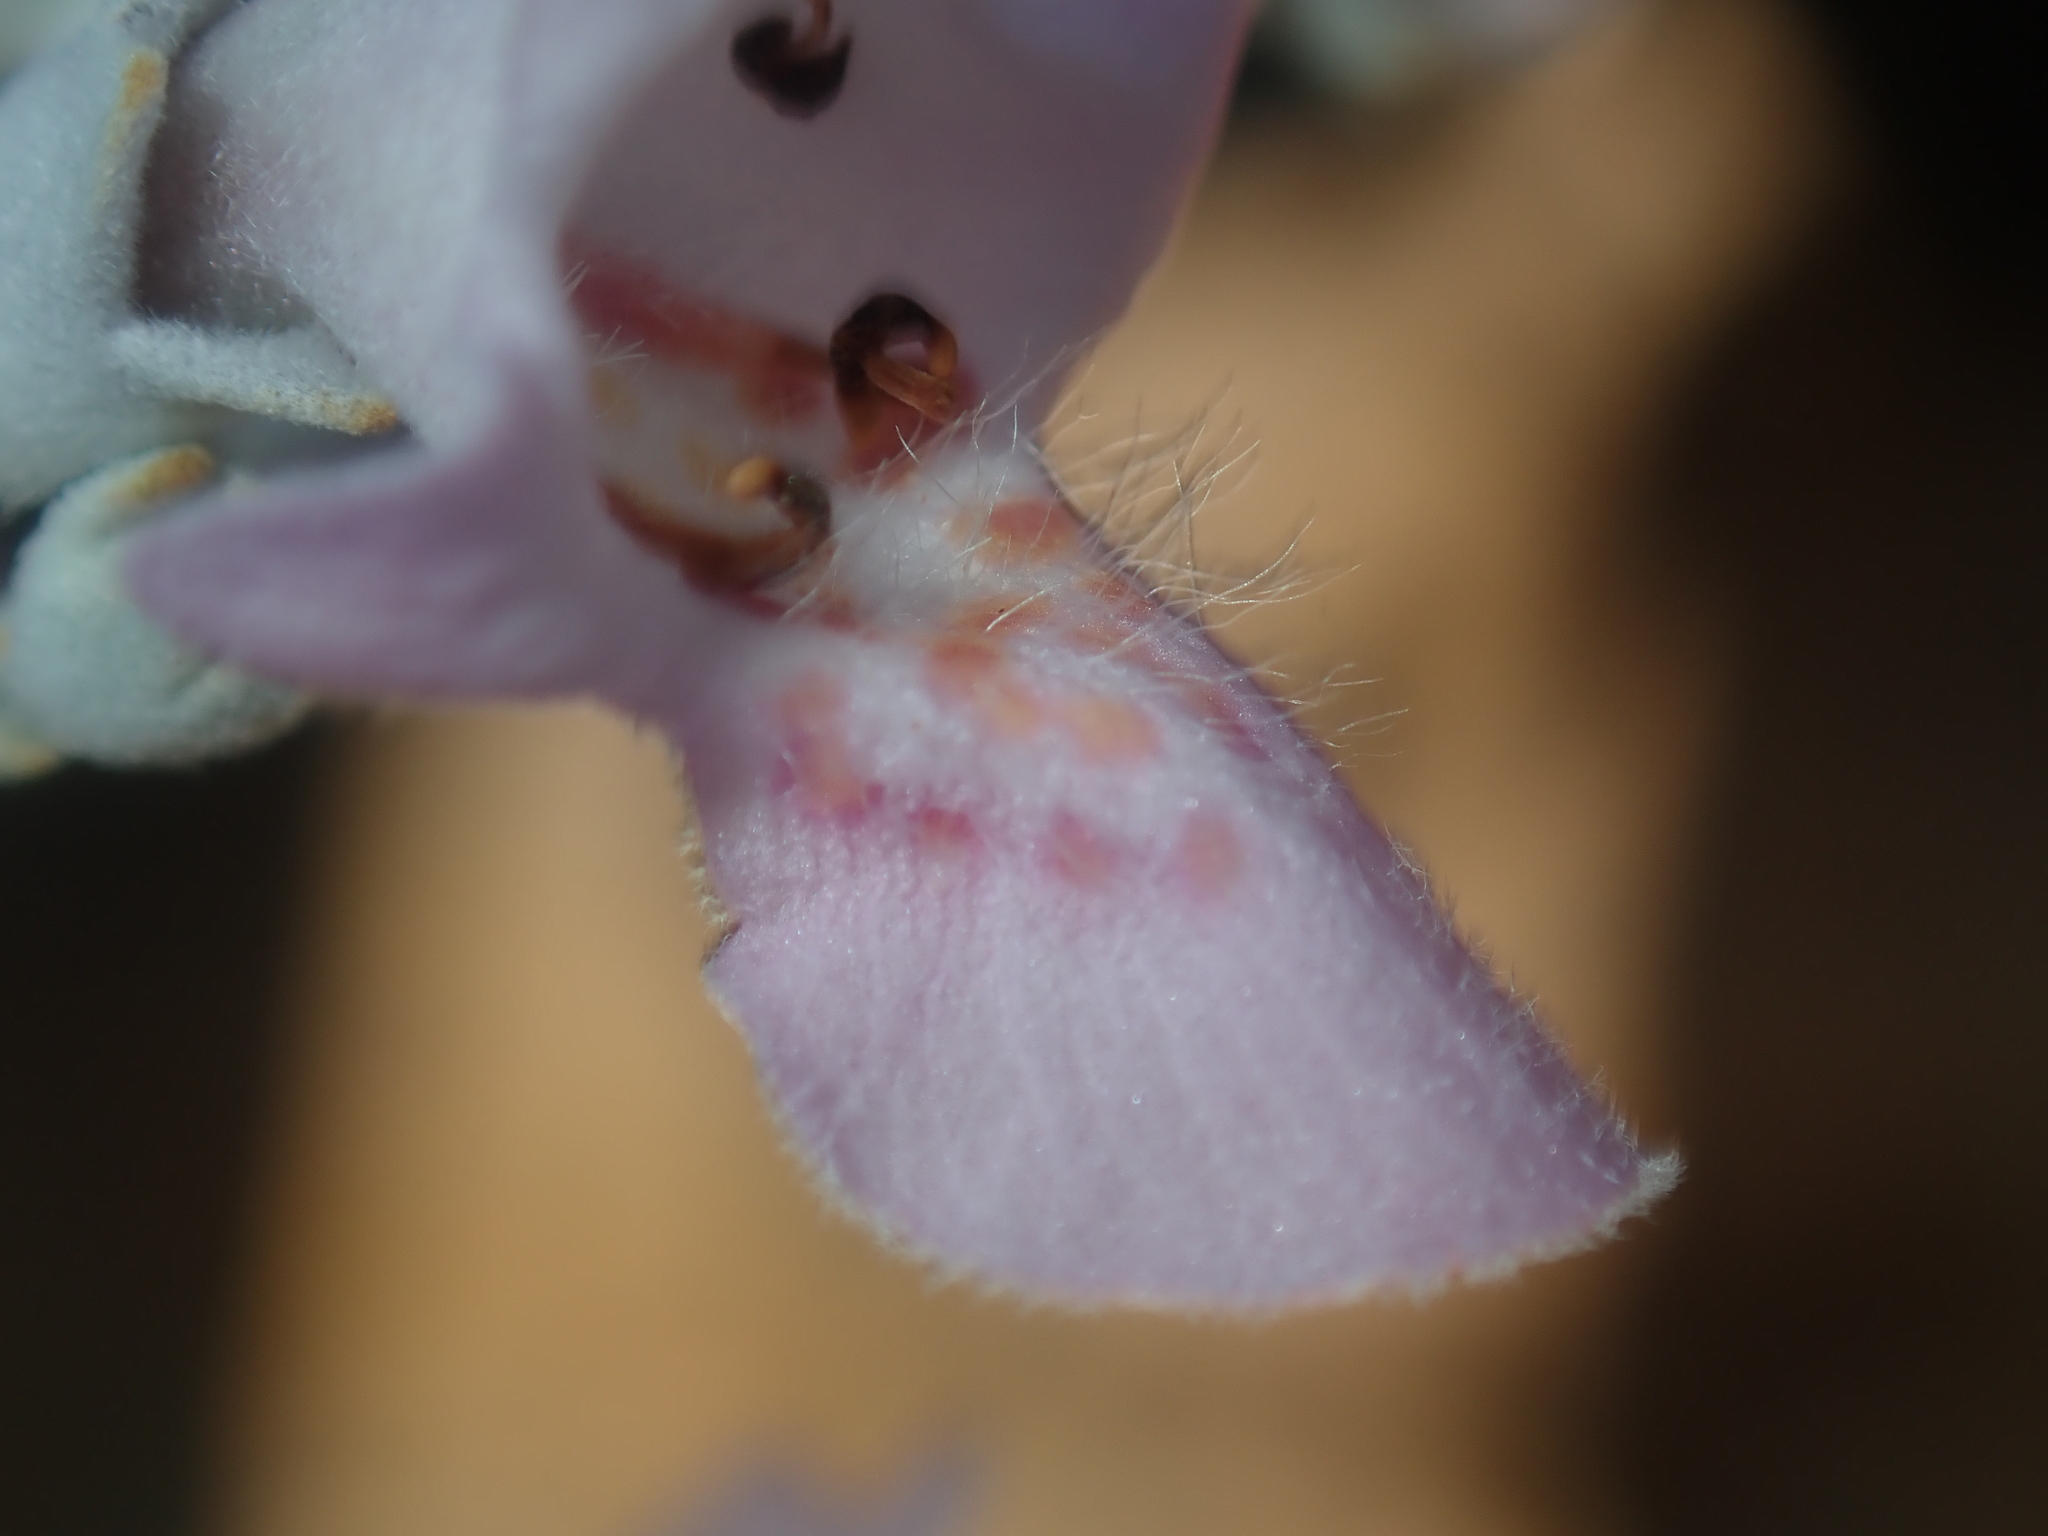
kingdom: Plantae
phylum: Tracheophyta
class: Magnoliopsida
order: Lamiales
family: Lamiaceae
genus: Quoya
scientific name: Quoya atriplicina
